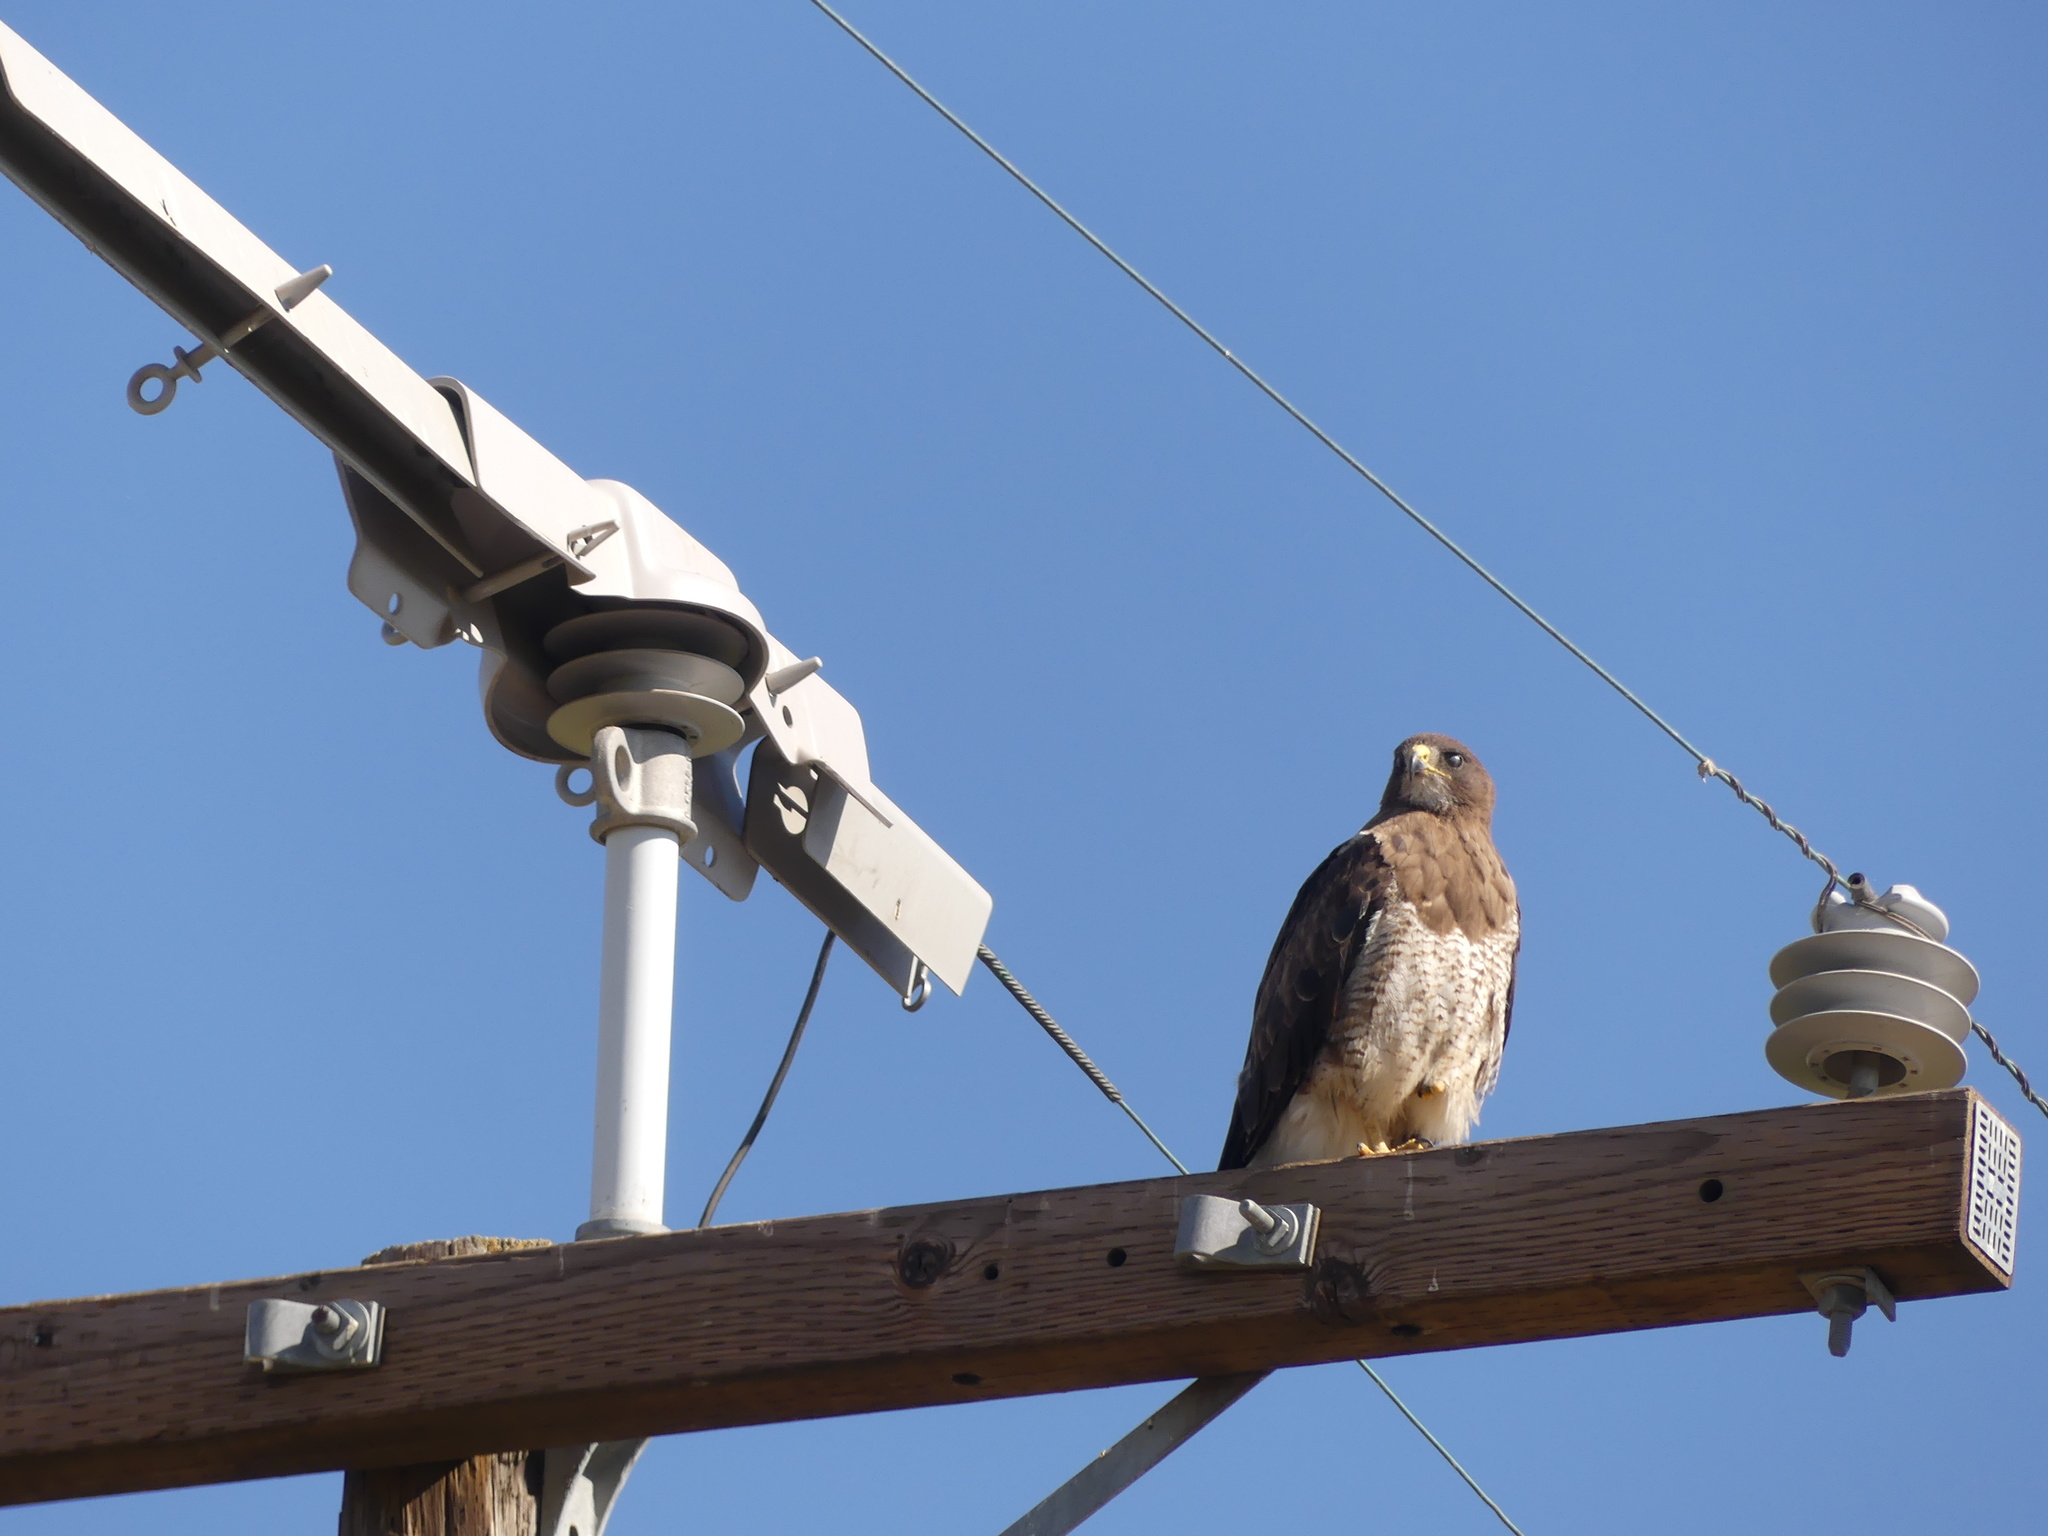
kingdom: Animalia
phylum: Chordata
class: Aves
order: Accipitriformes
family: Accipitridae
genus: Buteo
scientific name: Buteo swainsoni
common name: Swainson's hawk
